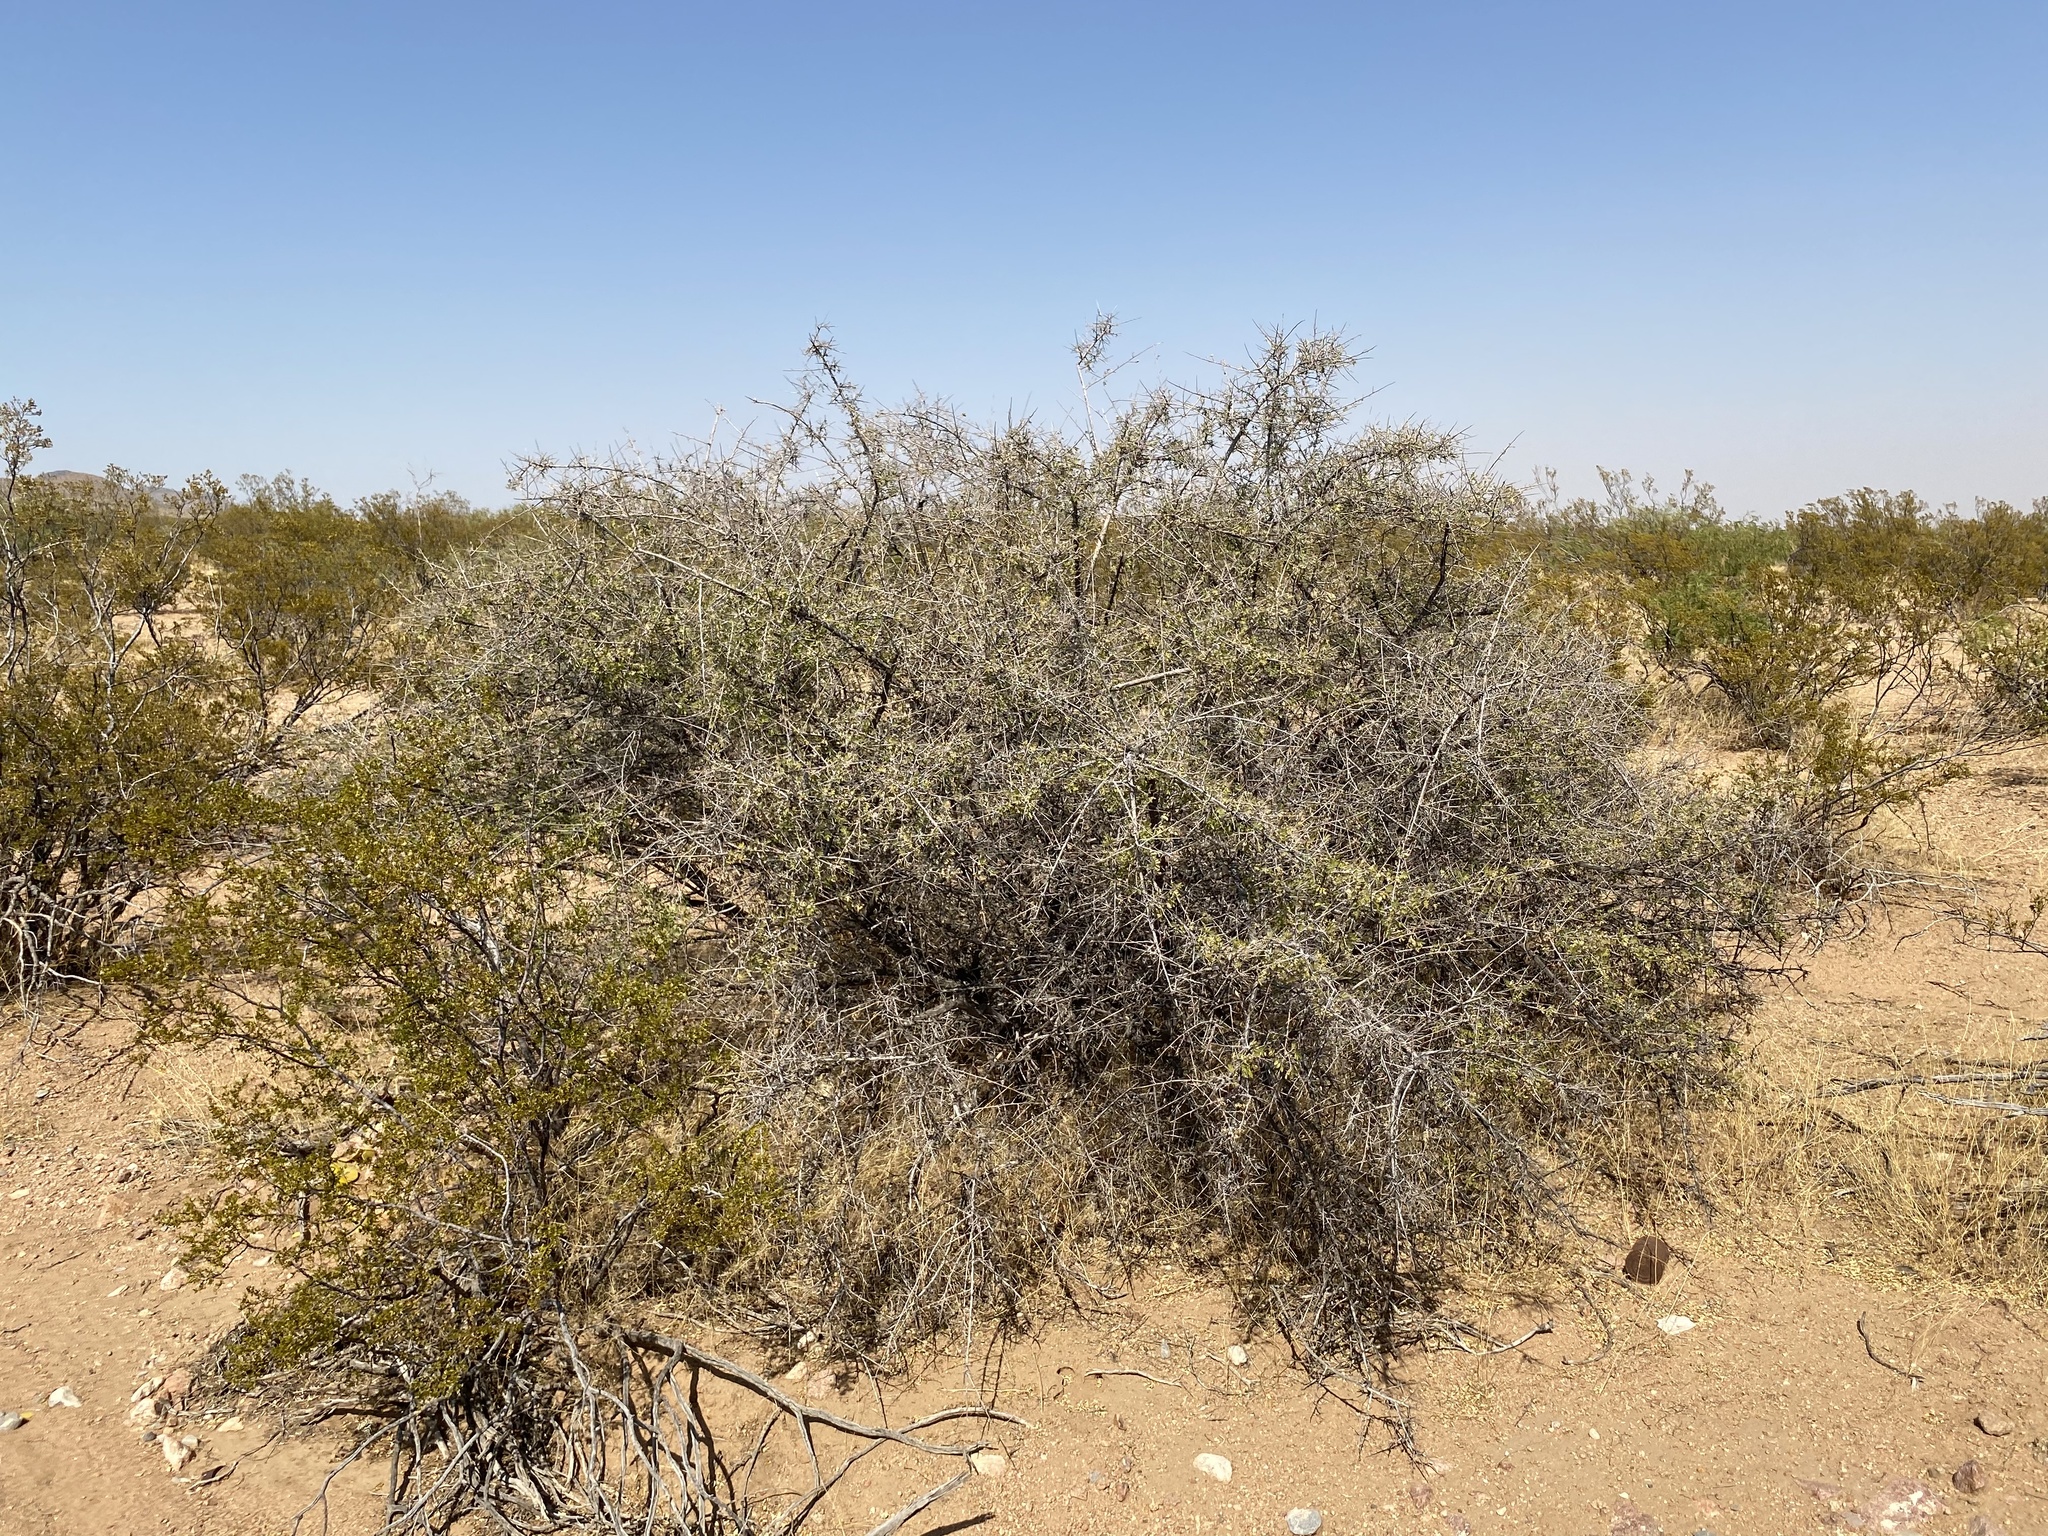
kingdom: Plantae
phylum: Tracheophyta
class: Magnoliopsida
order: Sapindales
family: Anacardiaceae
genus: Rhus
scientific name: Rhus microphylla
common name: Desert sumac
